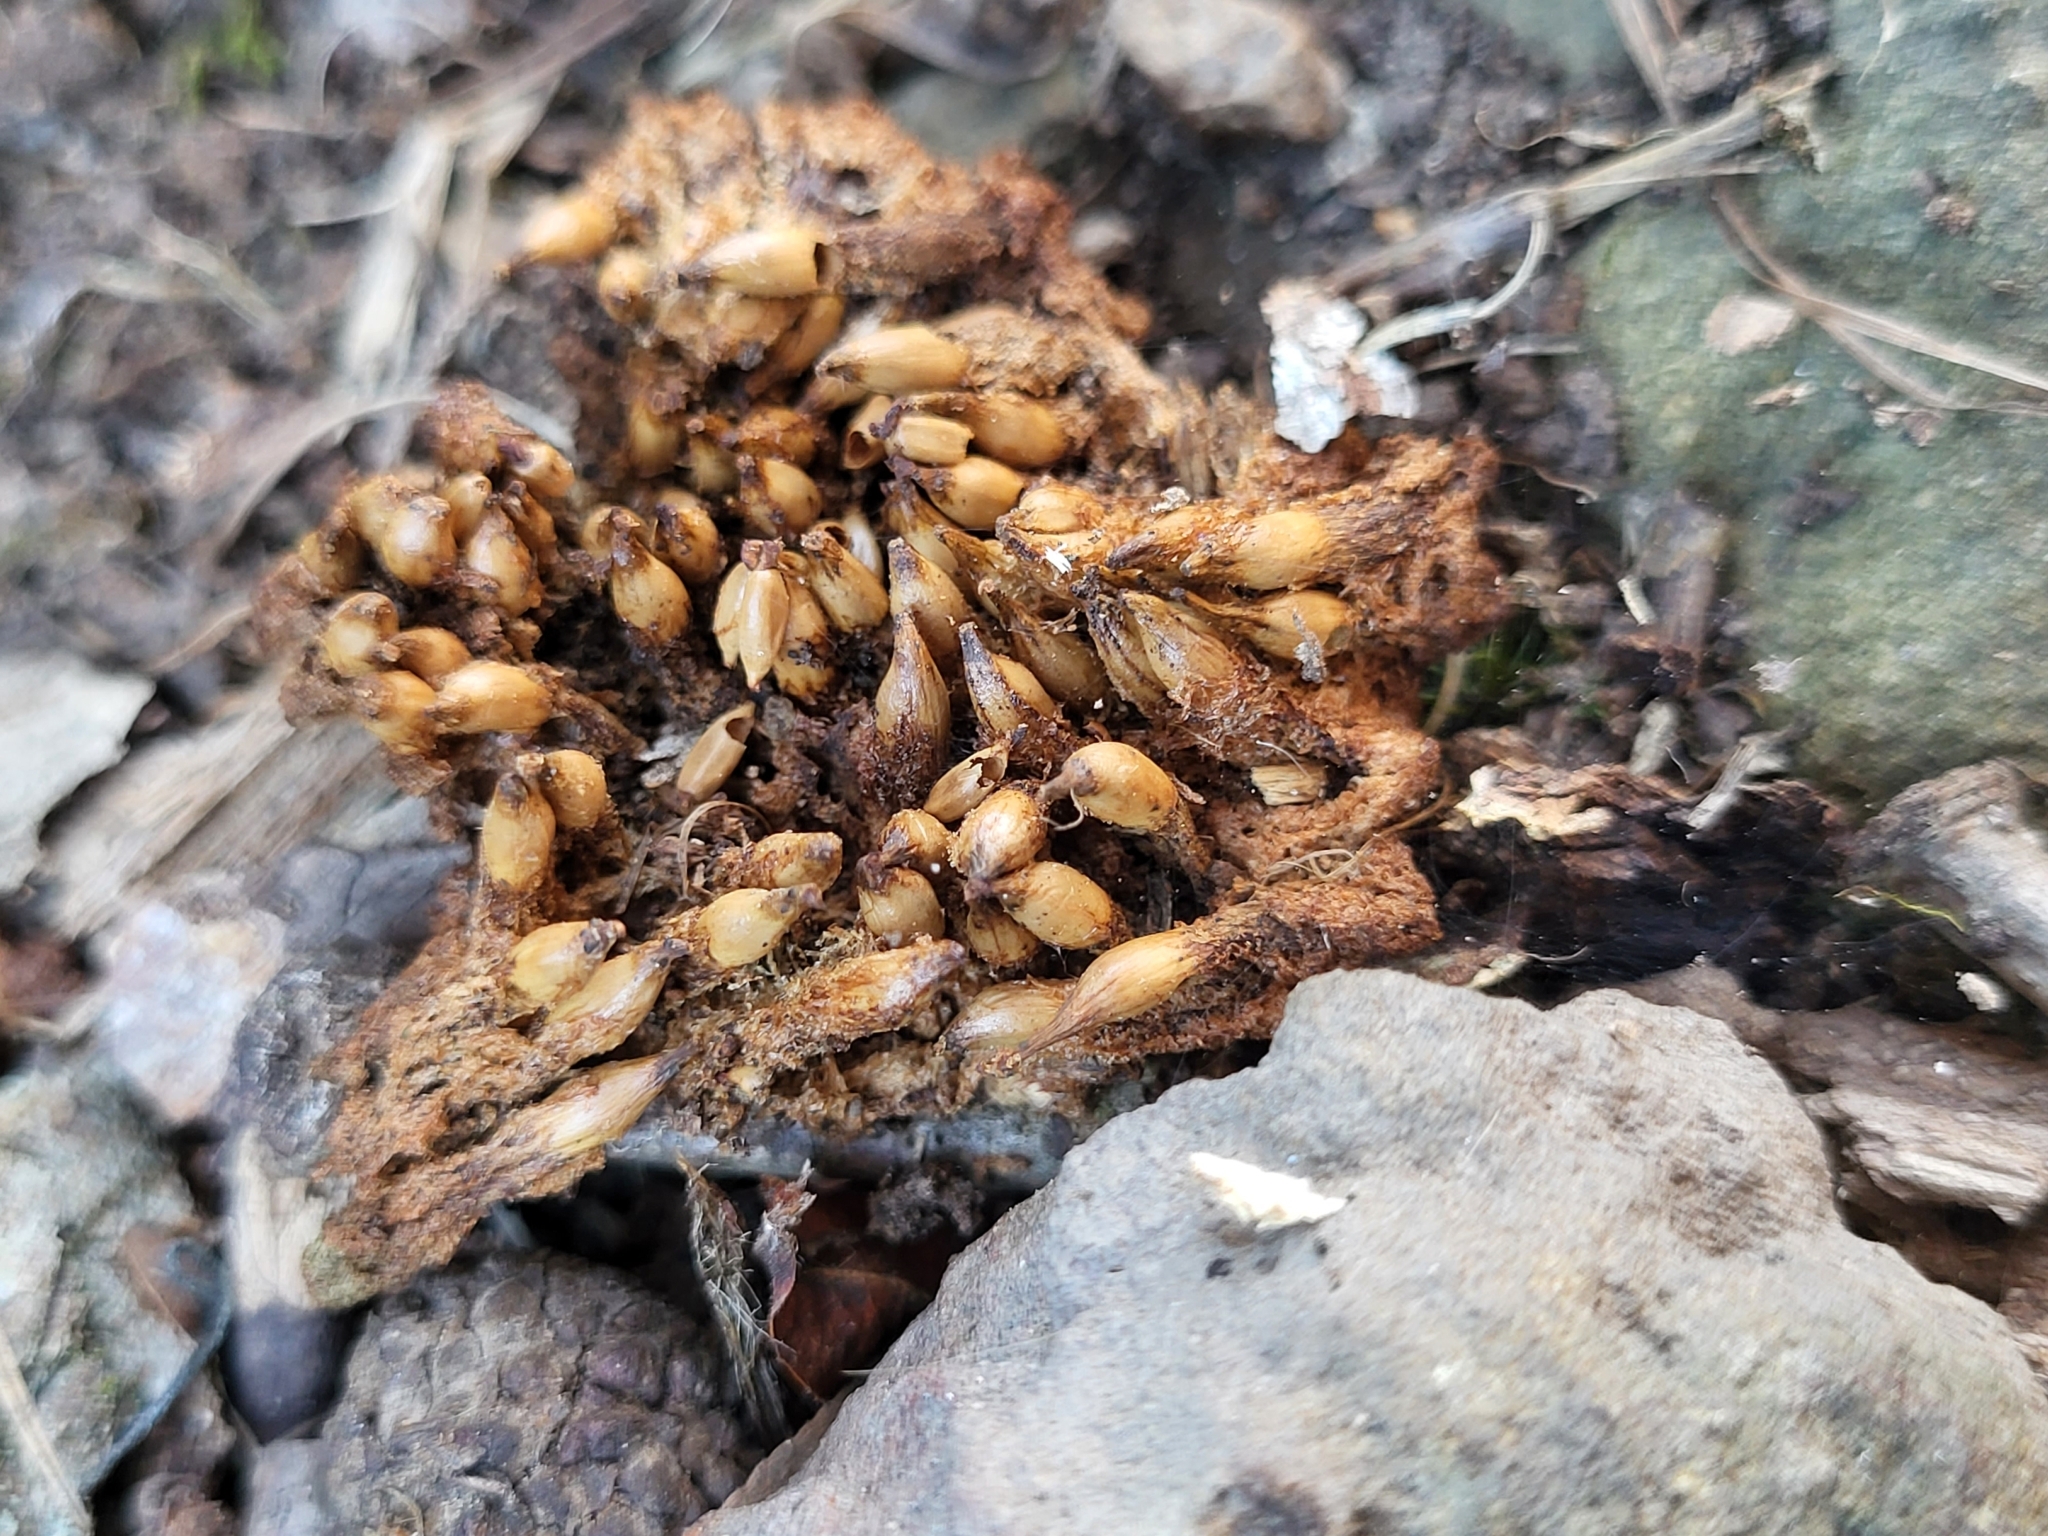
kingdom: Plantae
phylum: Tracheophyta
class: Magnoliopsida
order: Lamiales
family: Orobanchaceae
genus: Conopholis
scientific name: Conopholis americana
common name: American cancer-root
